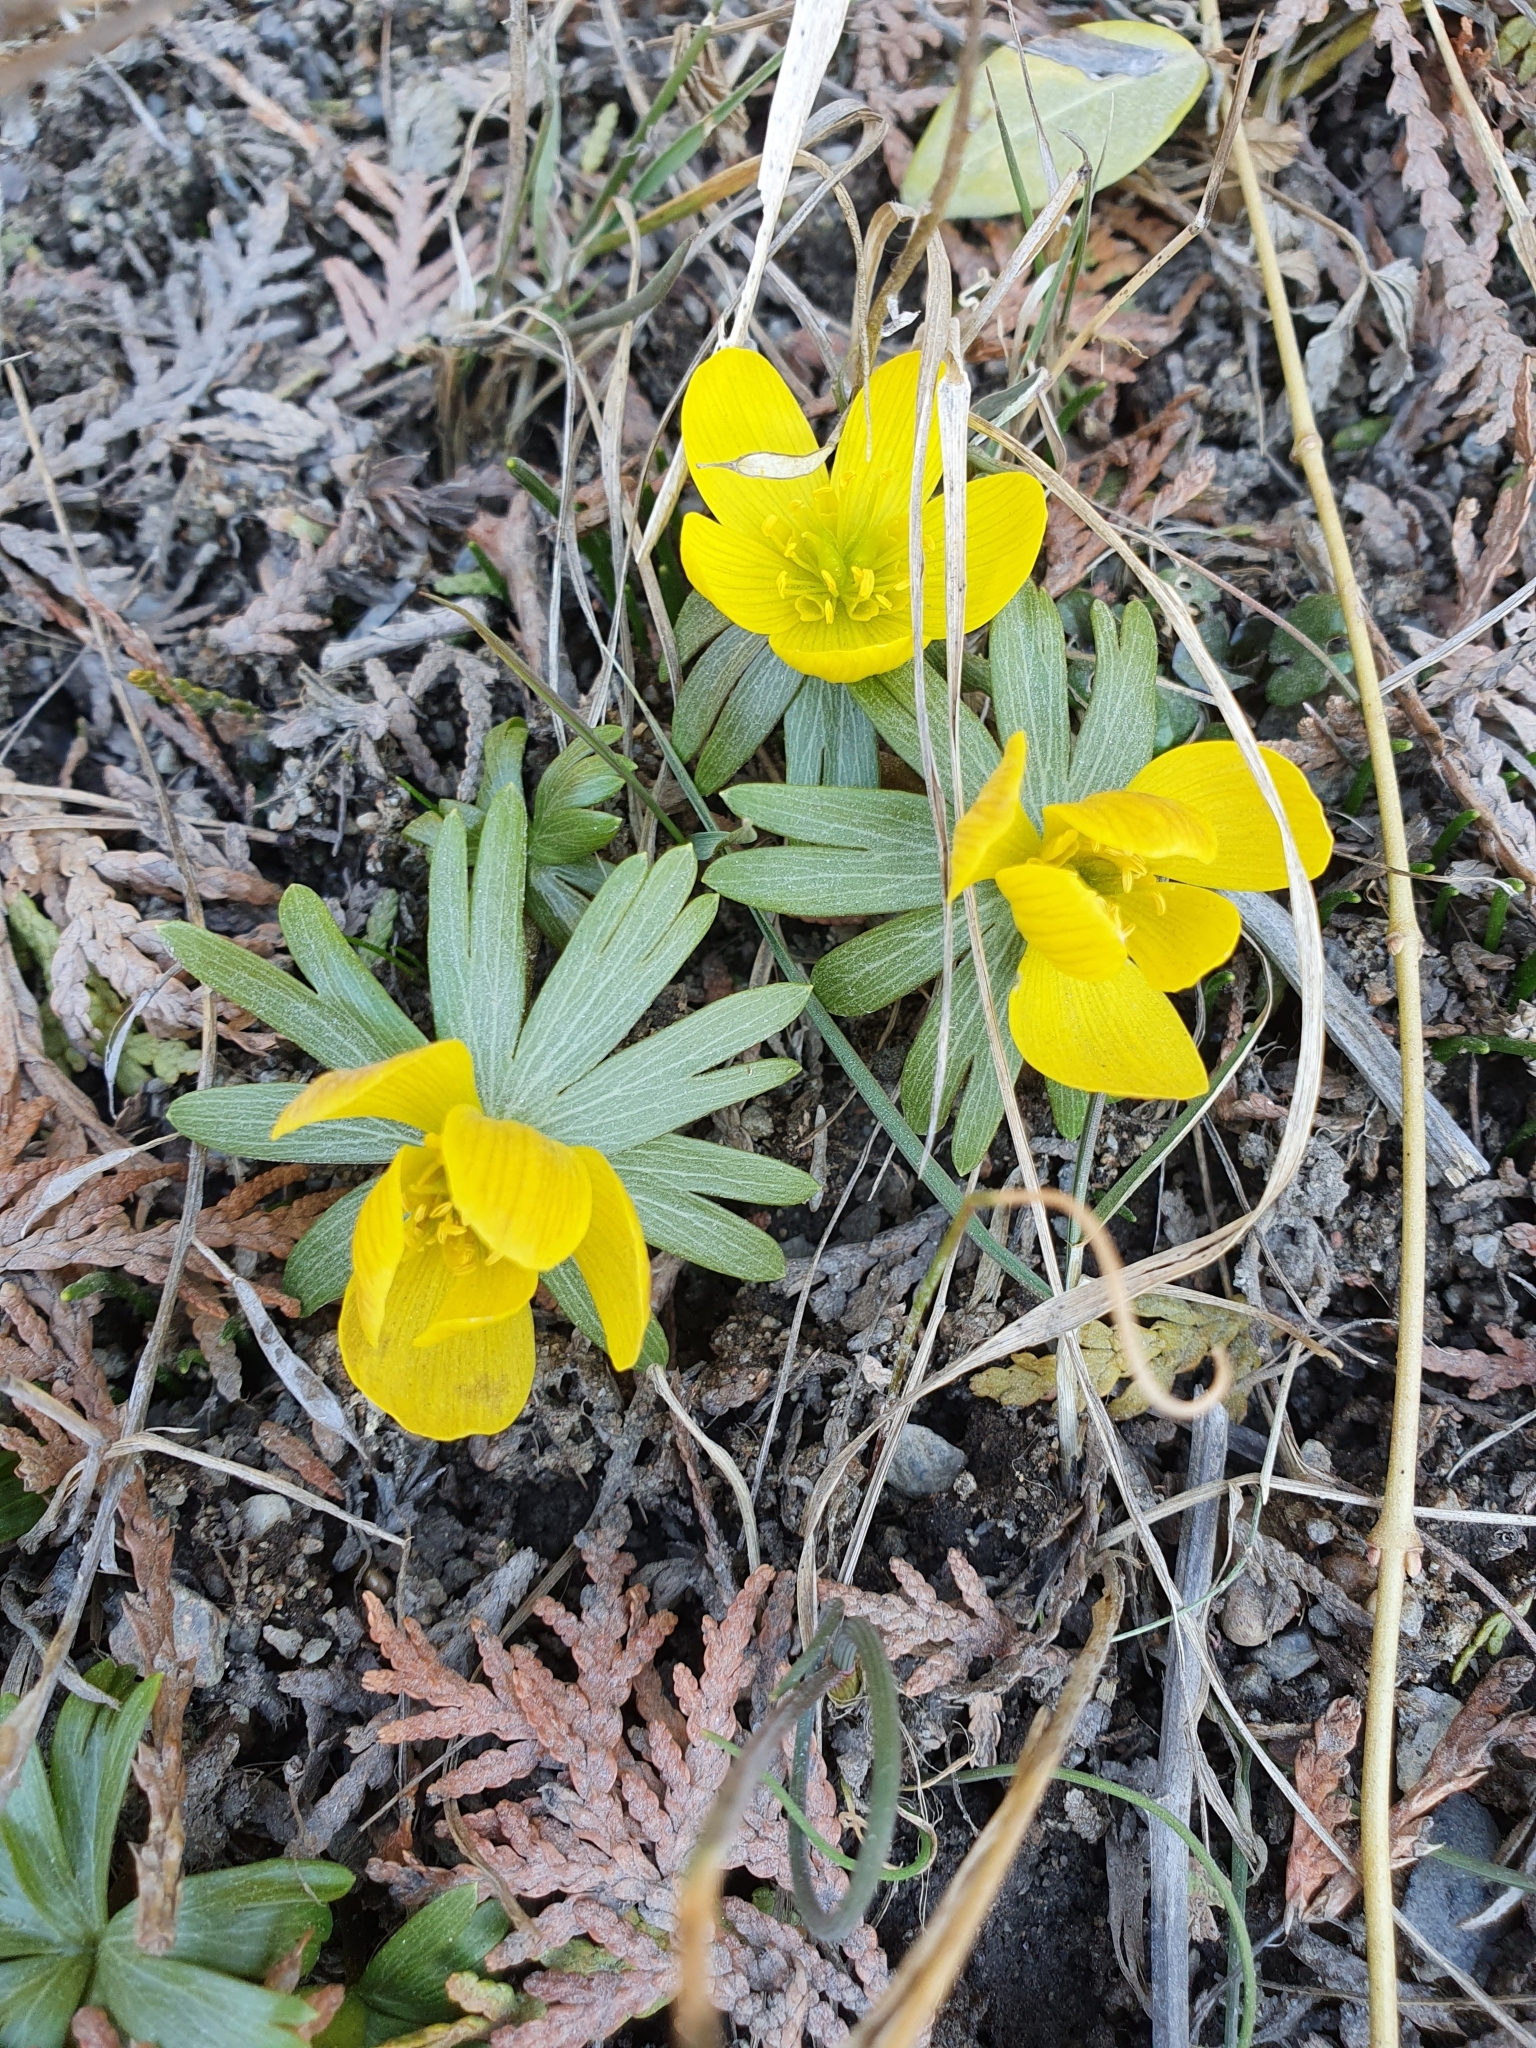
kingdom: Plantae
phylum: Tracheophyta
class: Magnoliopsida
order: Ranunculales
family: Ranunculaceae
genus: Eranthis
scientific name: Eranthis hyemalis
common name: Winter aconite
